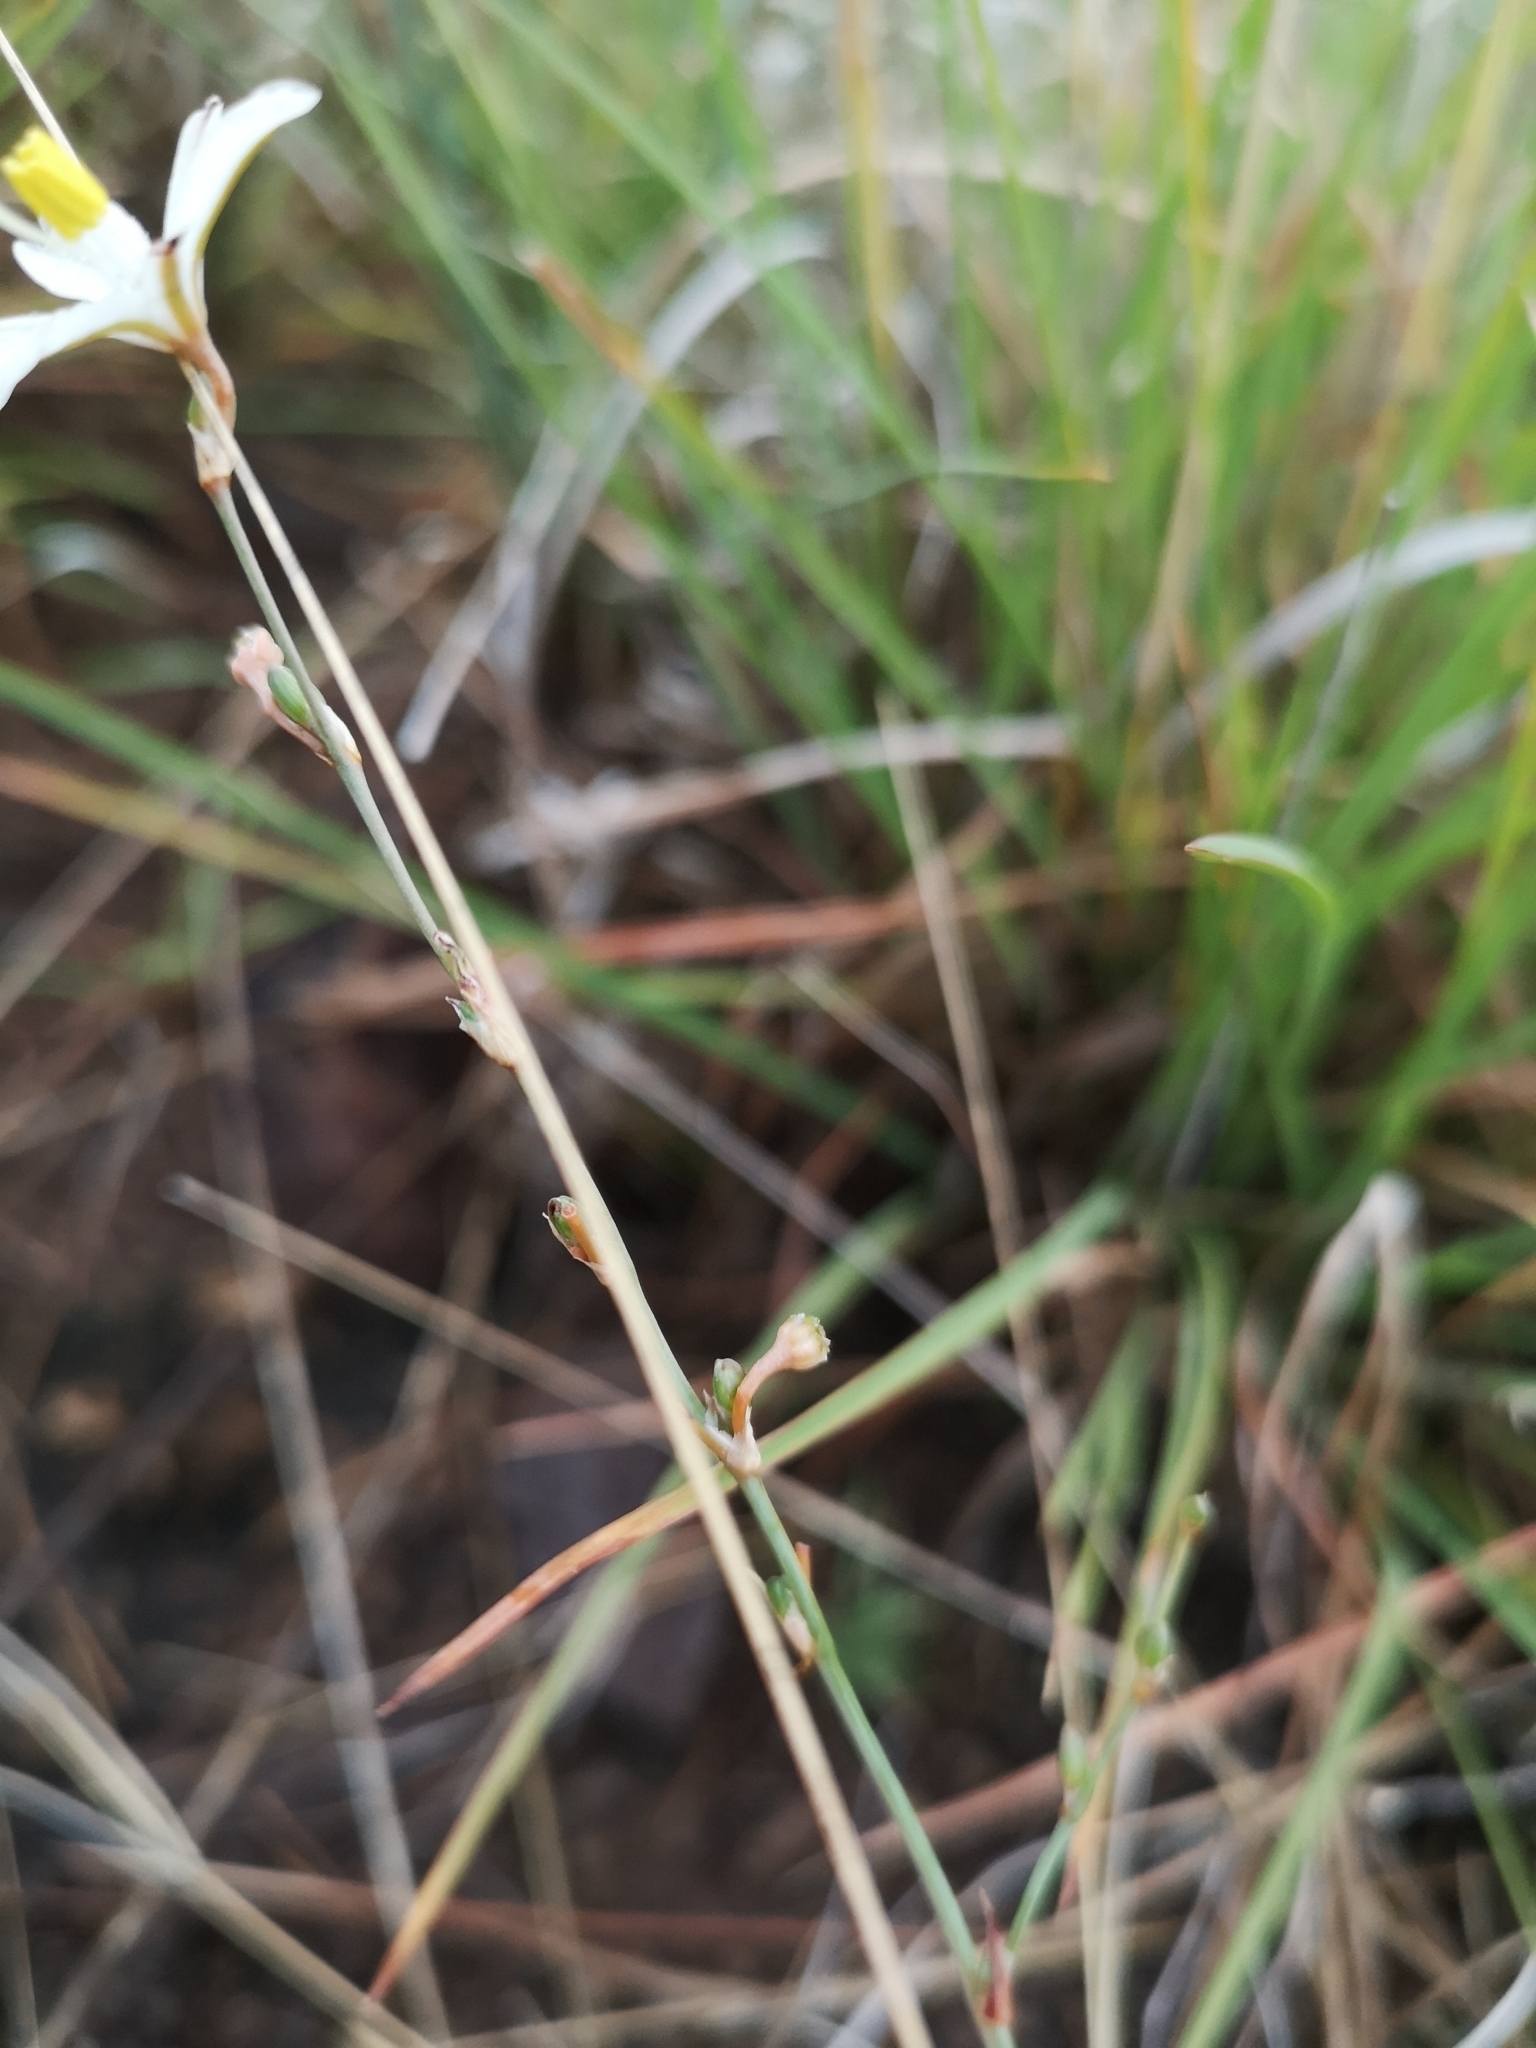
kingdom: Plantae
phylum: Tracheophyta
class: Liliopsida
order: Asparagales
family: Asphodelaceae
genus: Trachyandra
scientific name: Trachyandra saltii
